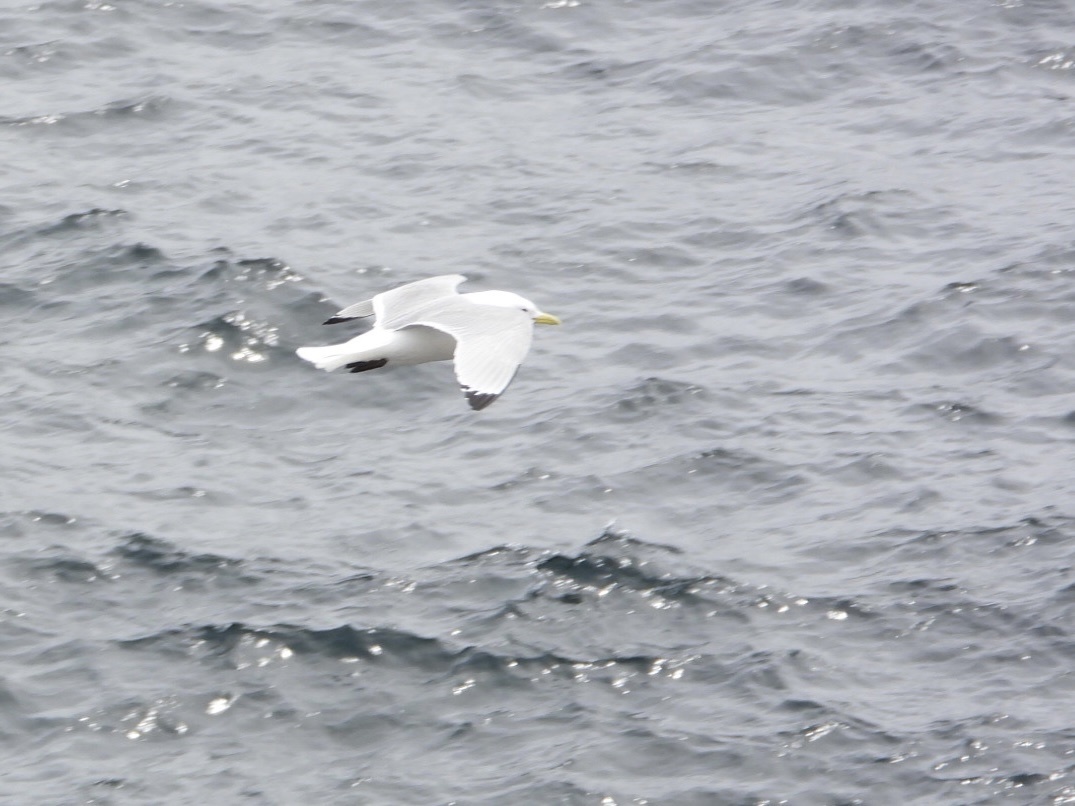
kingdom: Animalia
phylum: Chordata
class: Aves
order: Charadriiformes
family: Laridae
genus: Rissa
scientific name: Rissa tridactyla
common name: Black-legged kittiwake
